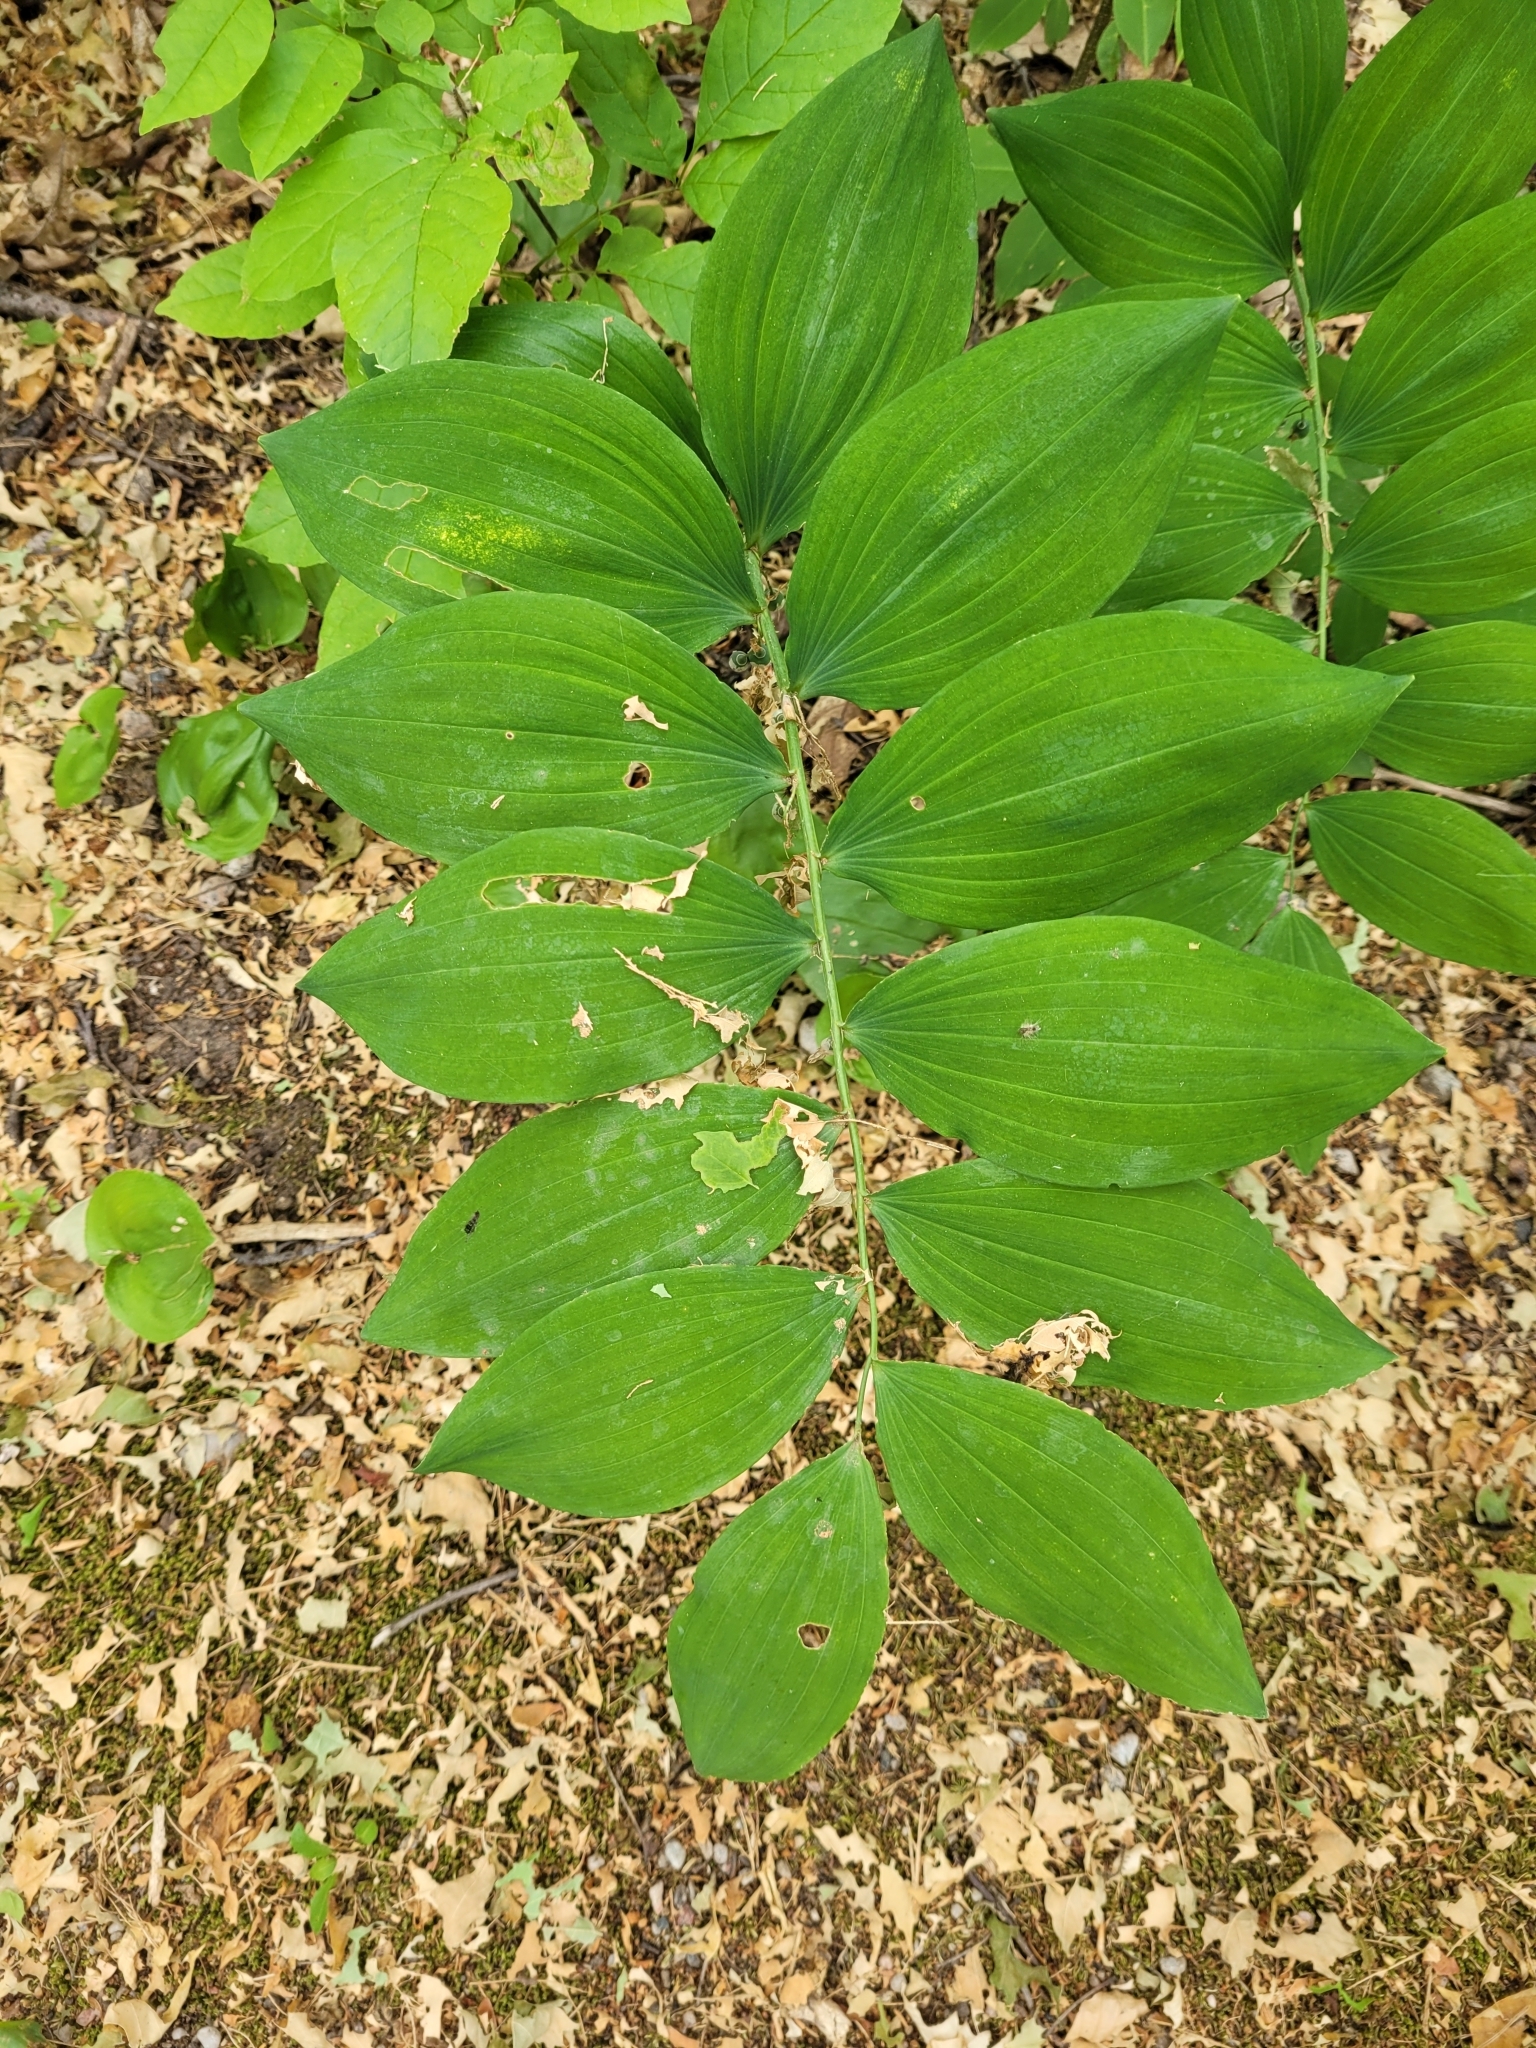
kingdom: Plantae
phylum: Tracheophyta
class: Liliopsida
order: Asparagales
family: Asparagaceae
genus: Polygonatum
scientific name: Polygonatum pubescens
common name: Downy solomon's seal
